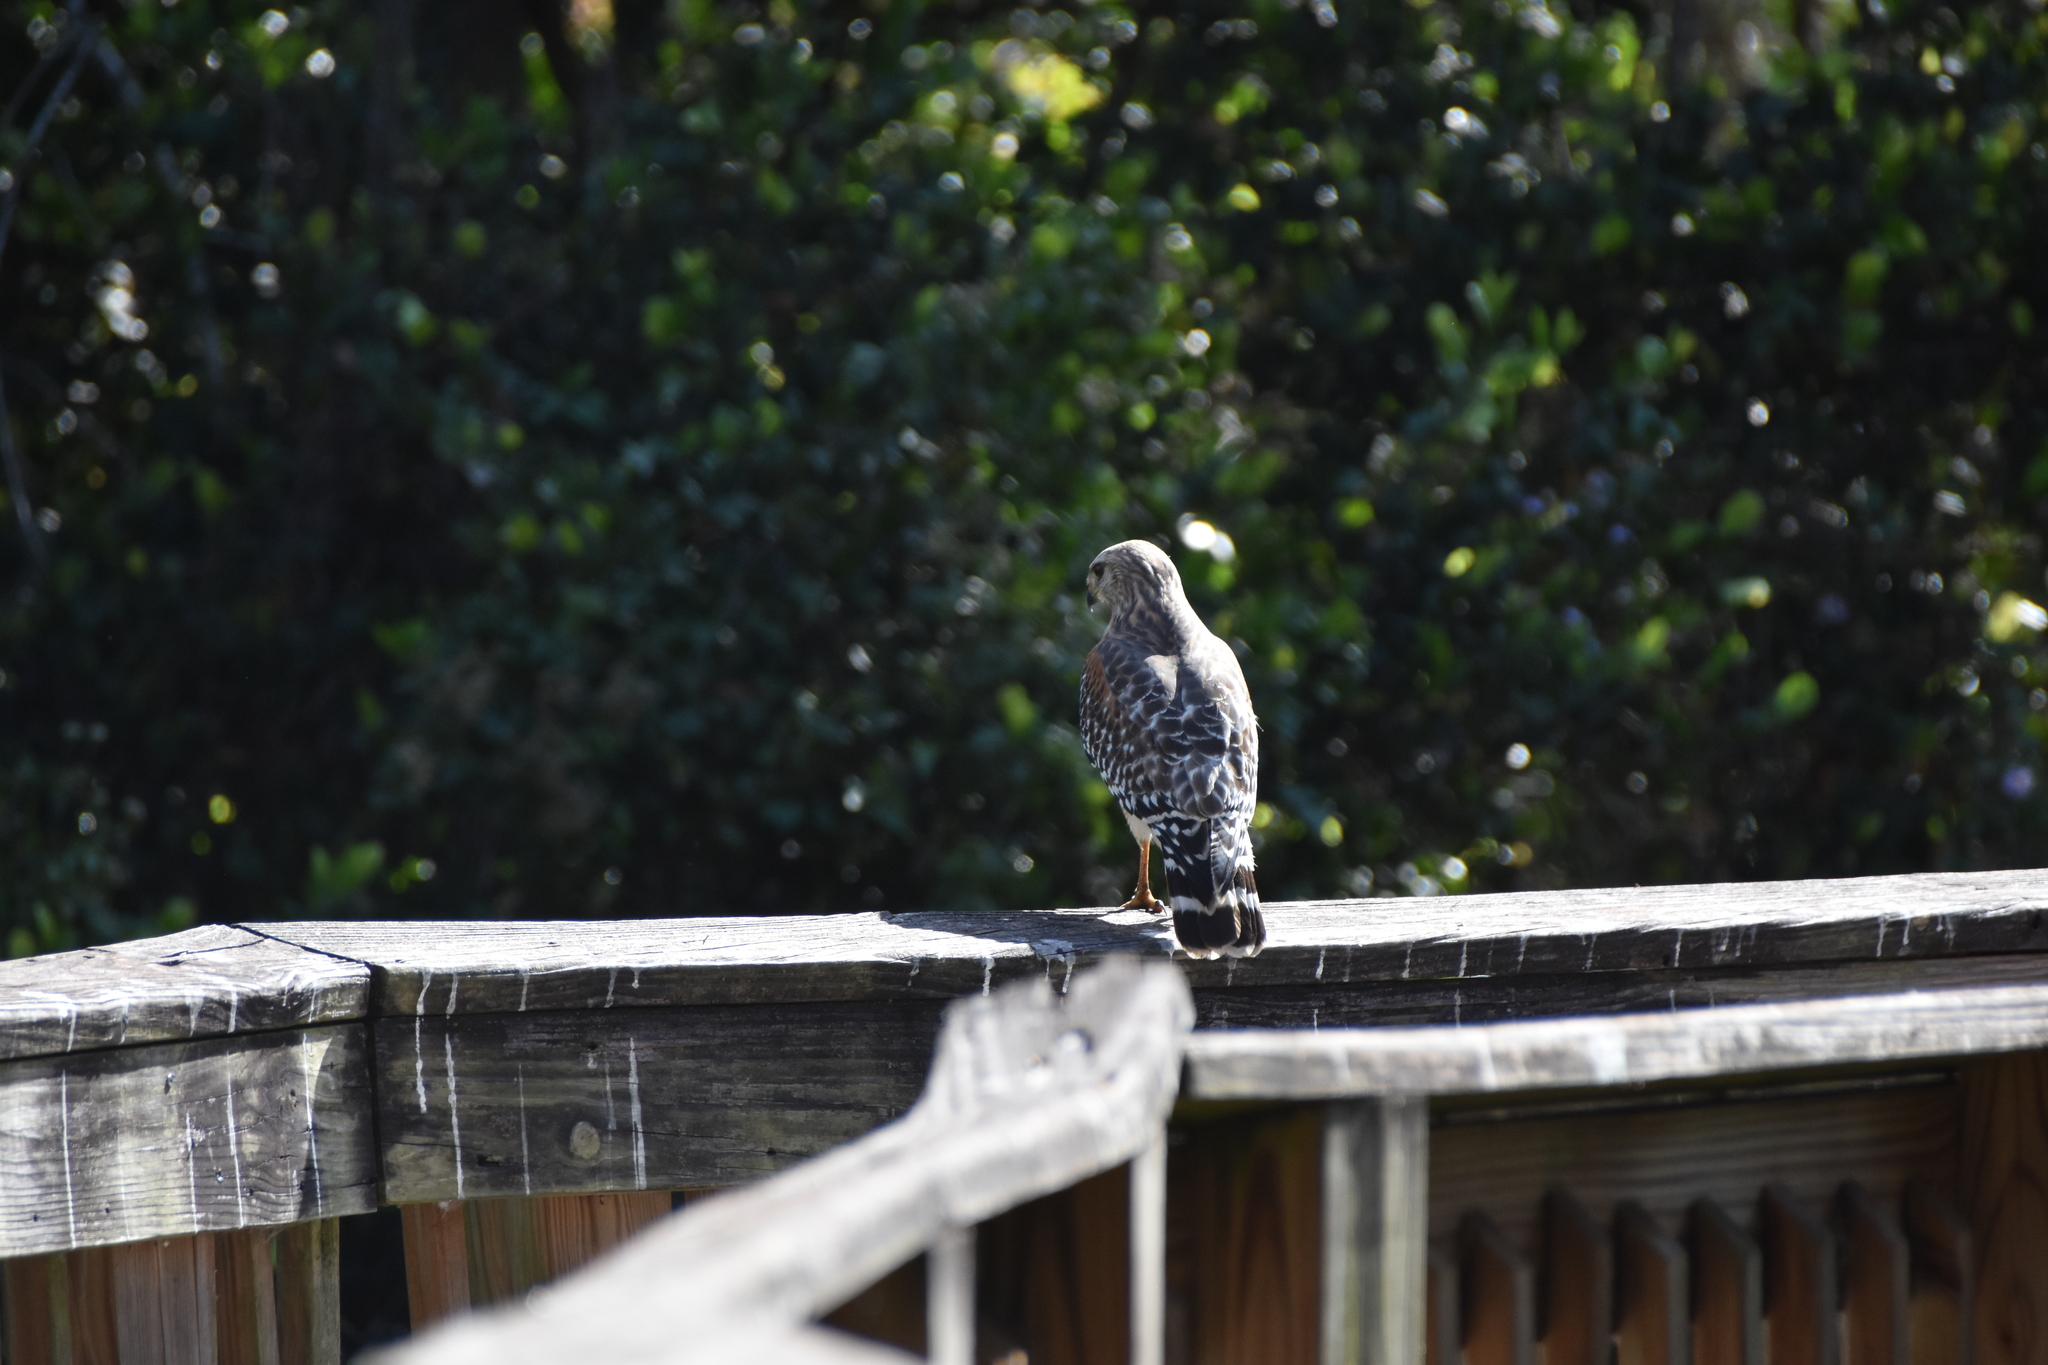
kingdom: Animalia
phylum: Chordata
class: Aves
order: Accipitriformes
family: Accipitridae
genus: Buteo
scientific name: Buteo lineatus
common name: Red-shouldered hawk
